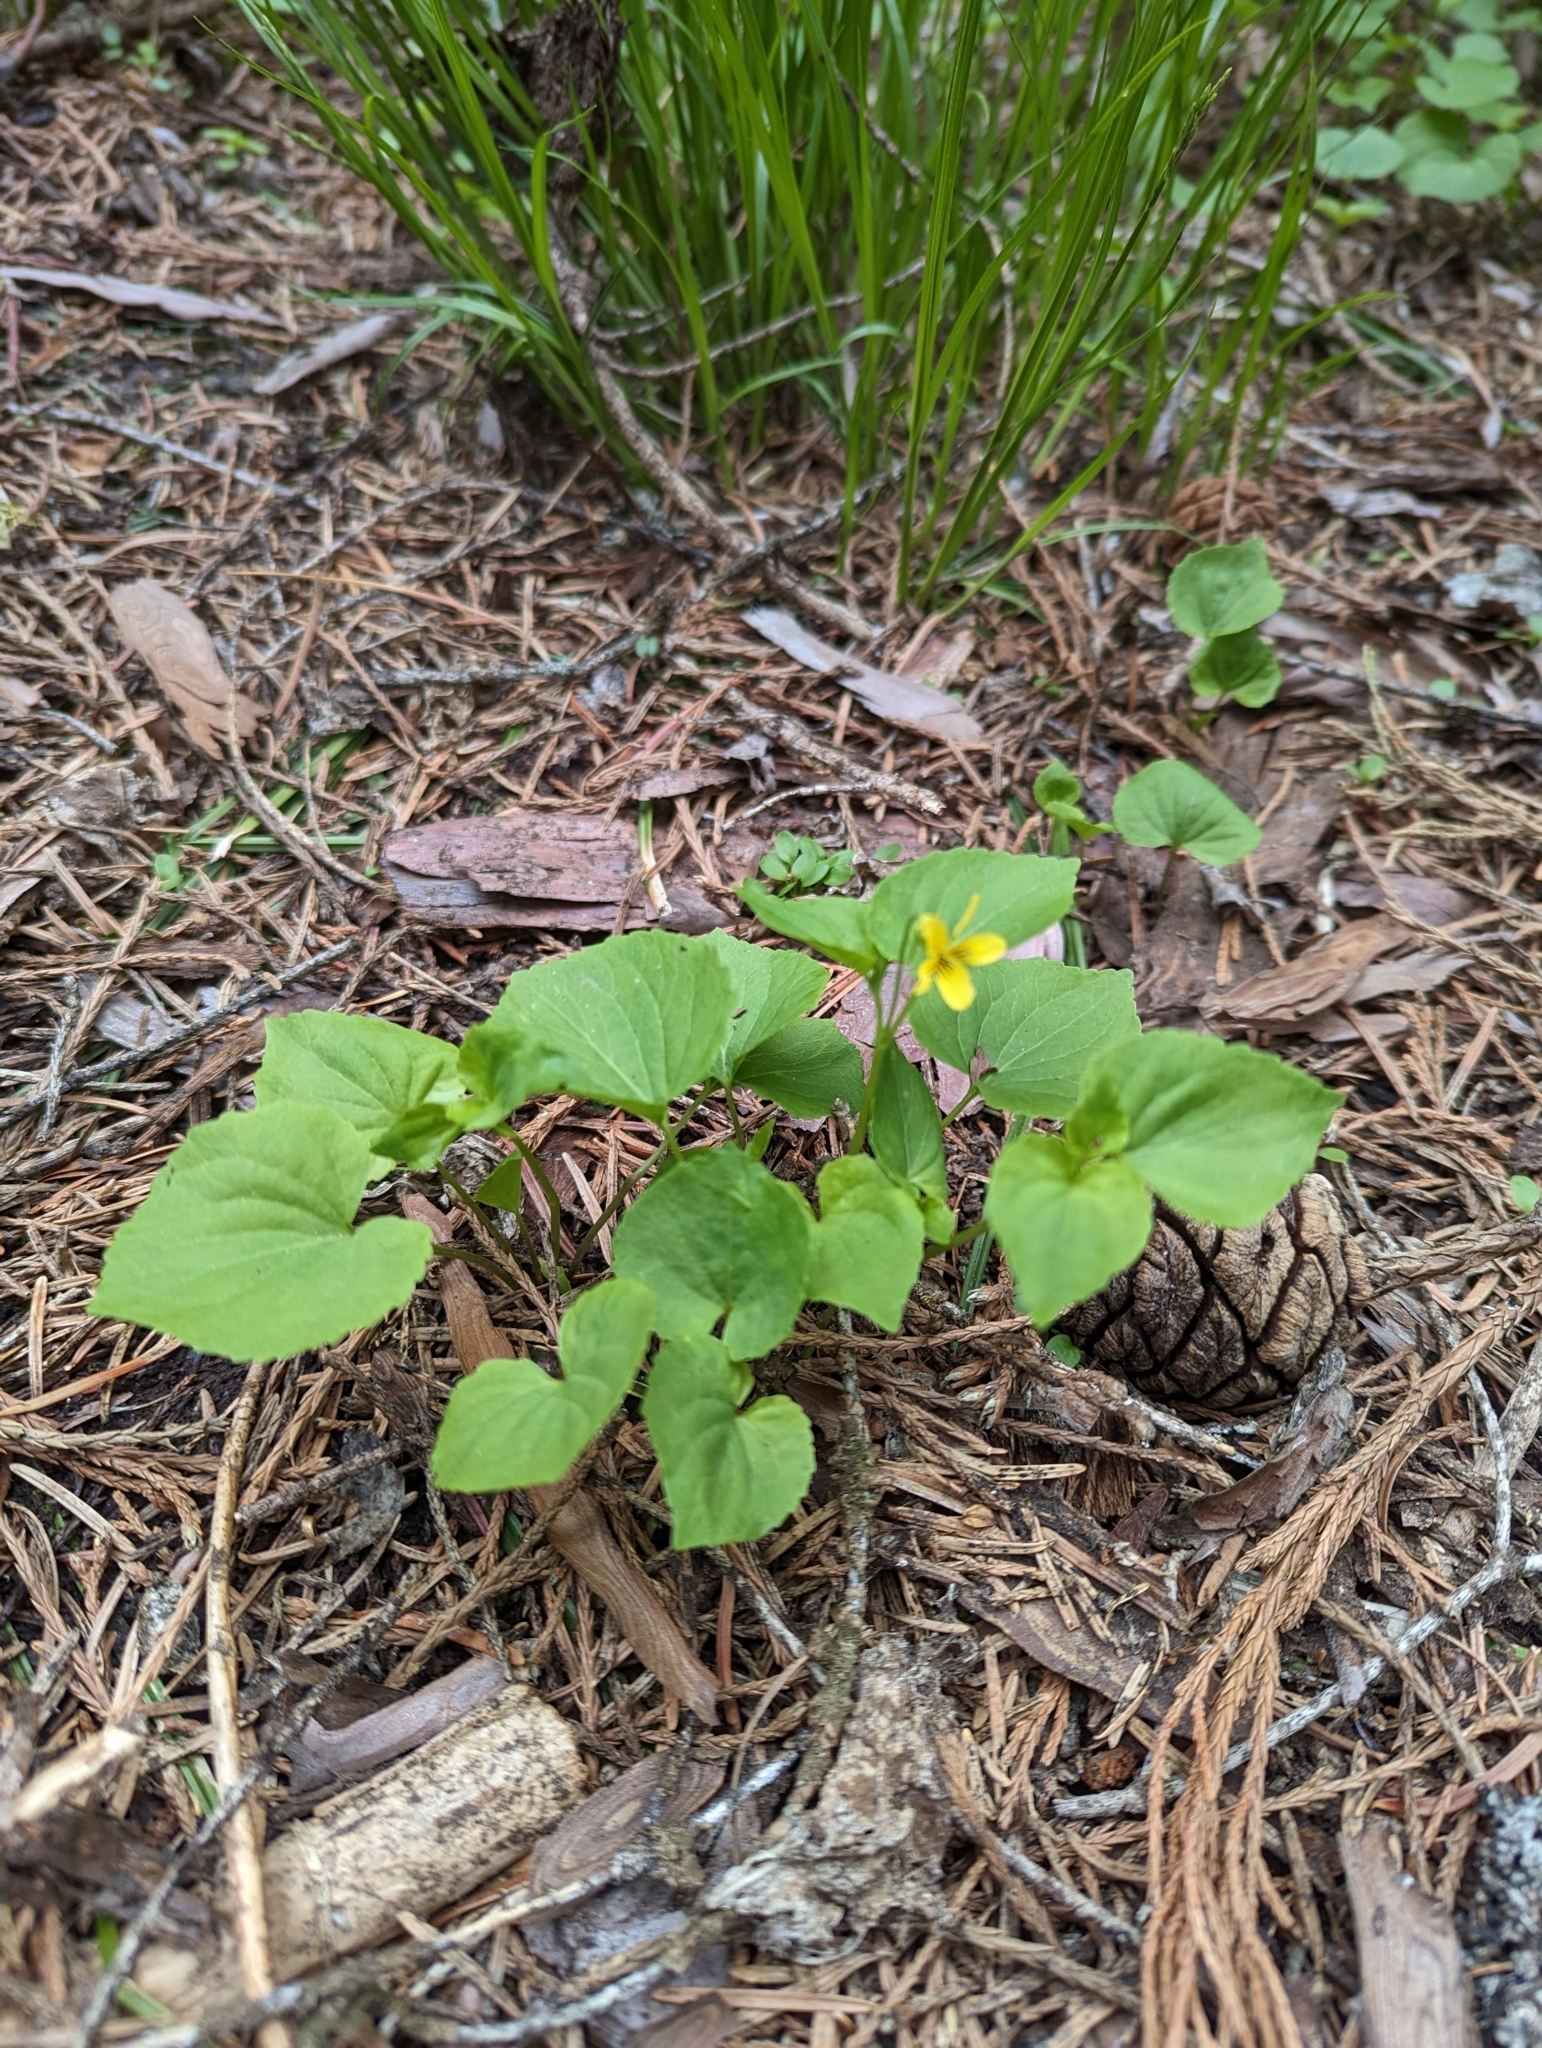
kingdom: Plantae
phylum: Tracheophyta
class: Magnoliopsida
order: Malpighiales
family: Violaceae
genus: Viola
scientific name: Viola glabella
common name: Stream violet
